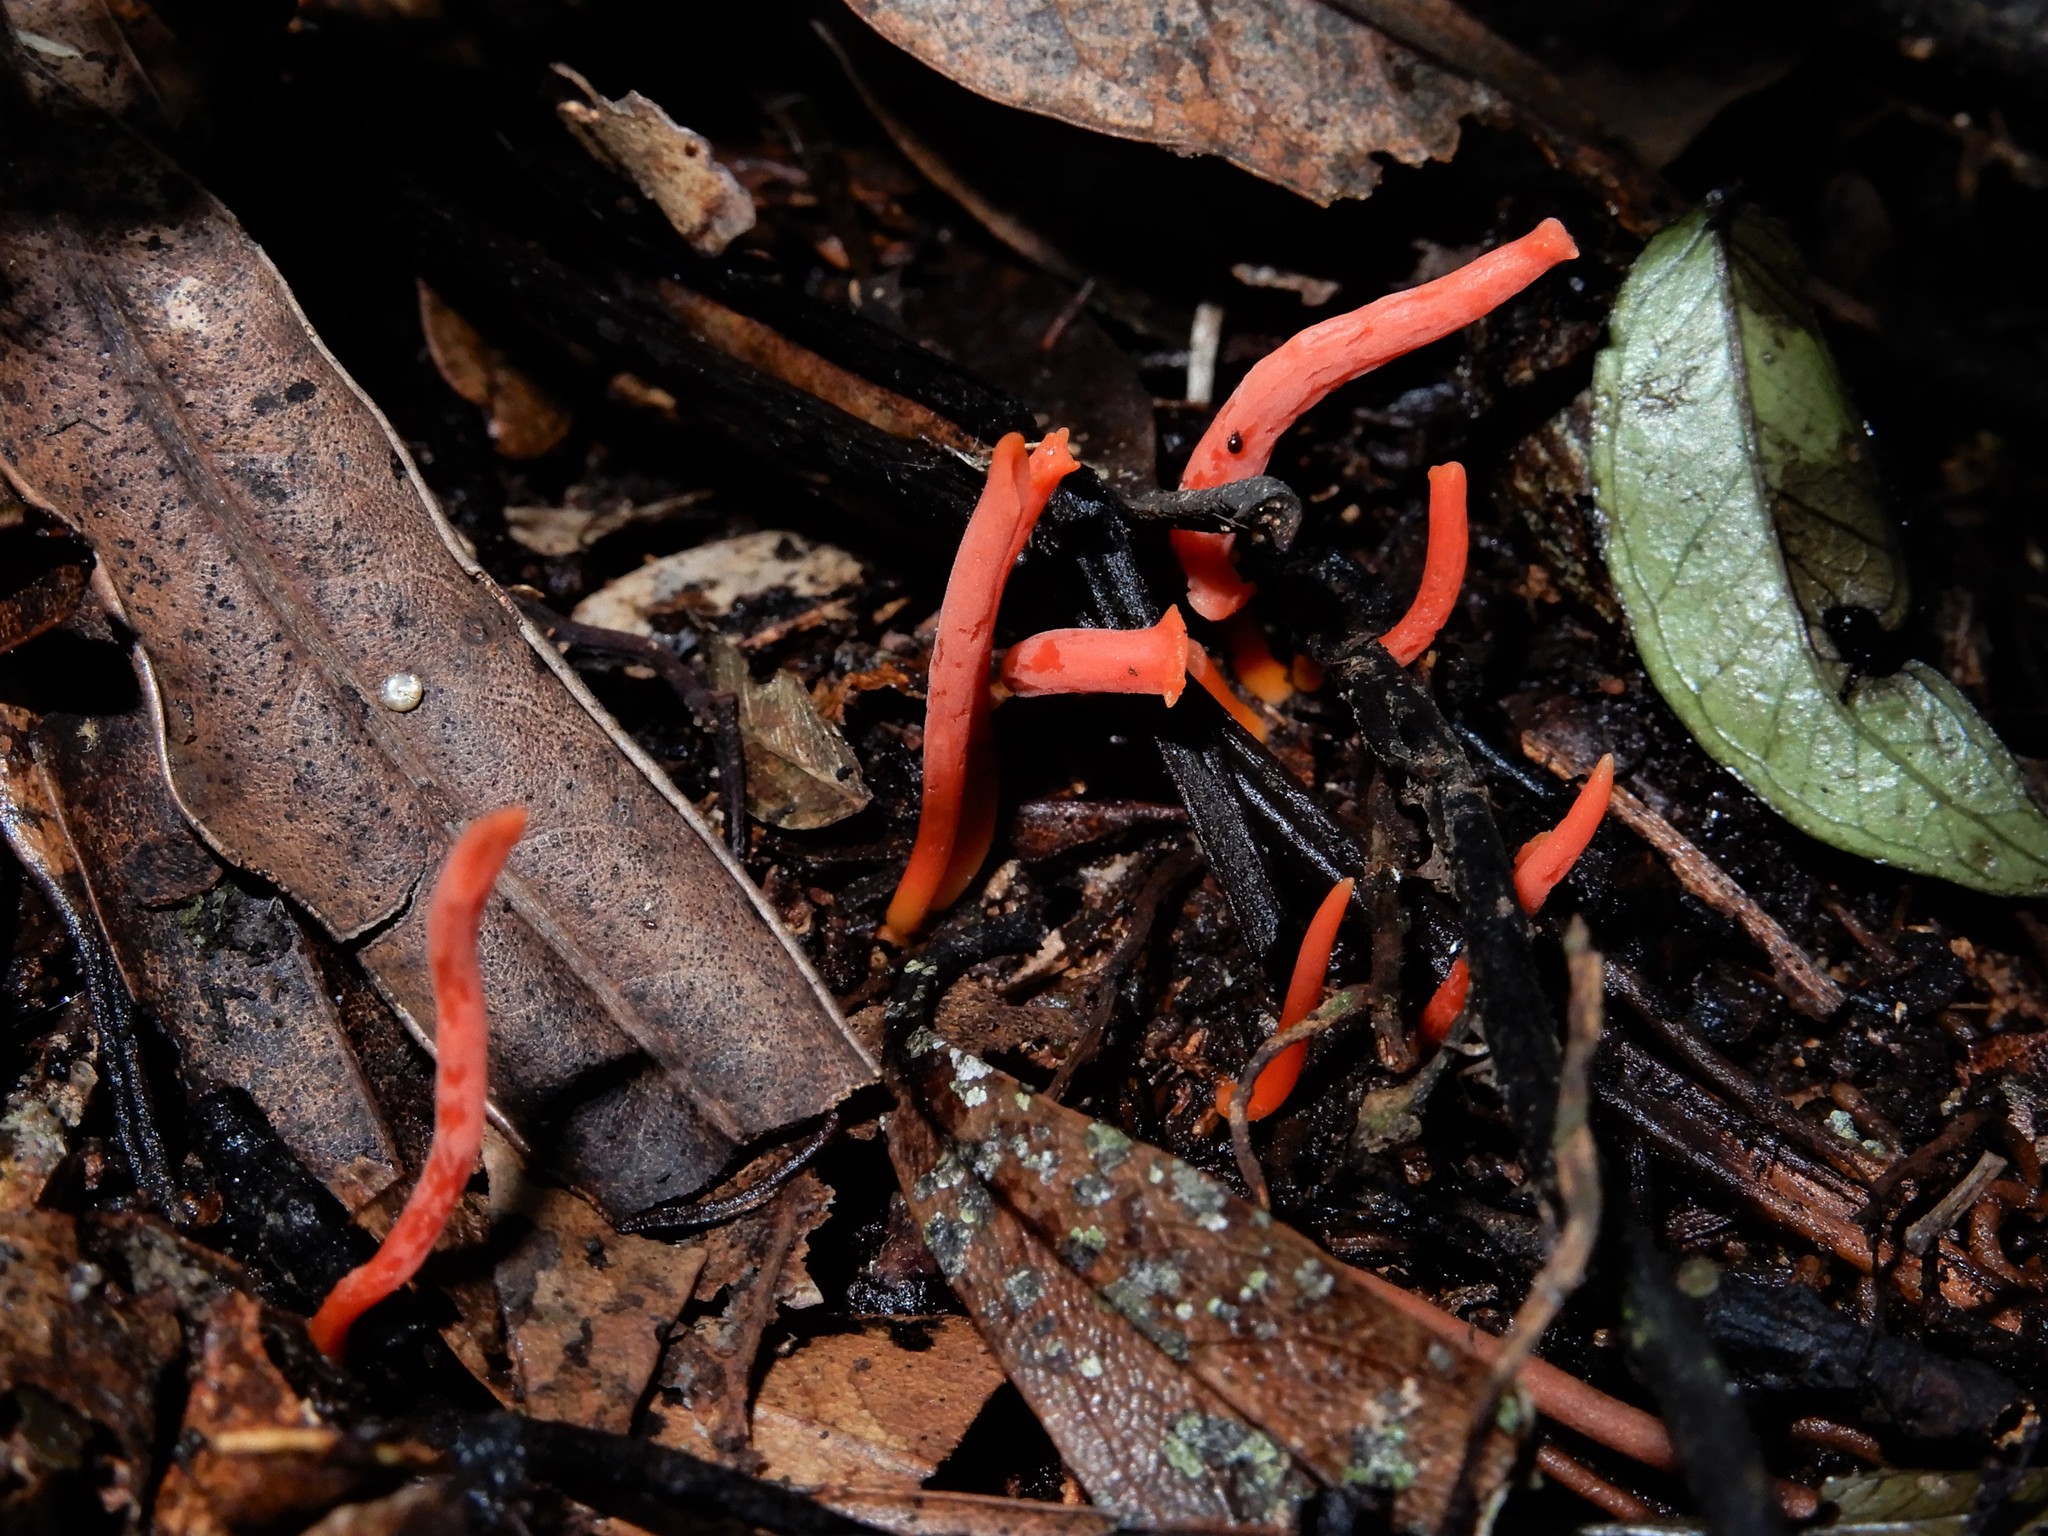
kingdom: Fungi
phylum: Basidiomycota
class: Agaricomycetes
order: Agaricales
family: Clavariaceae
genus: Clavulinopsis
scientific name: Clavulinopsis corallinorosacea
